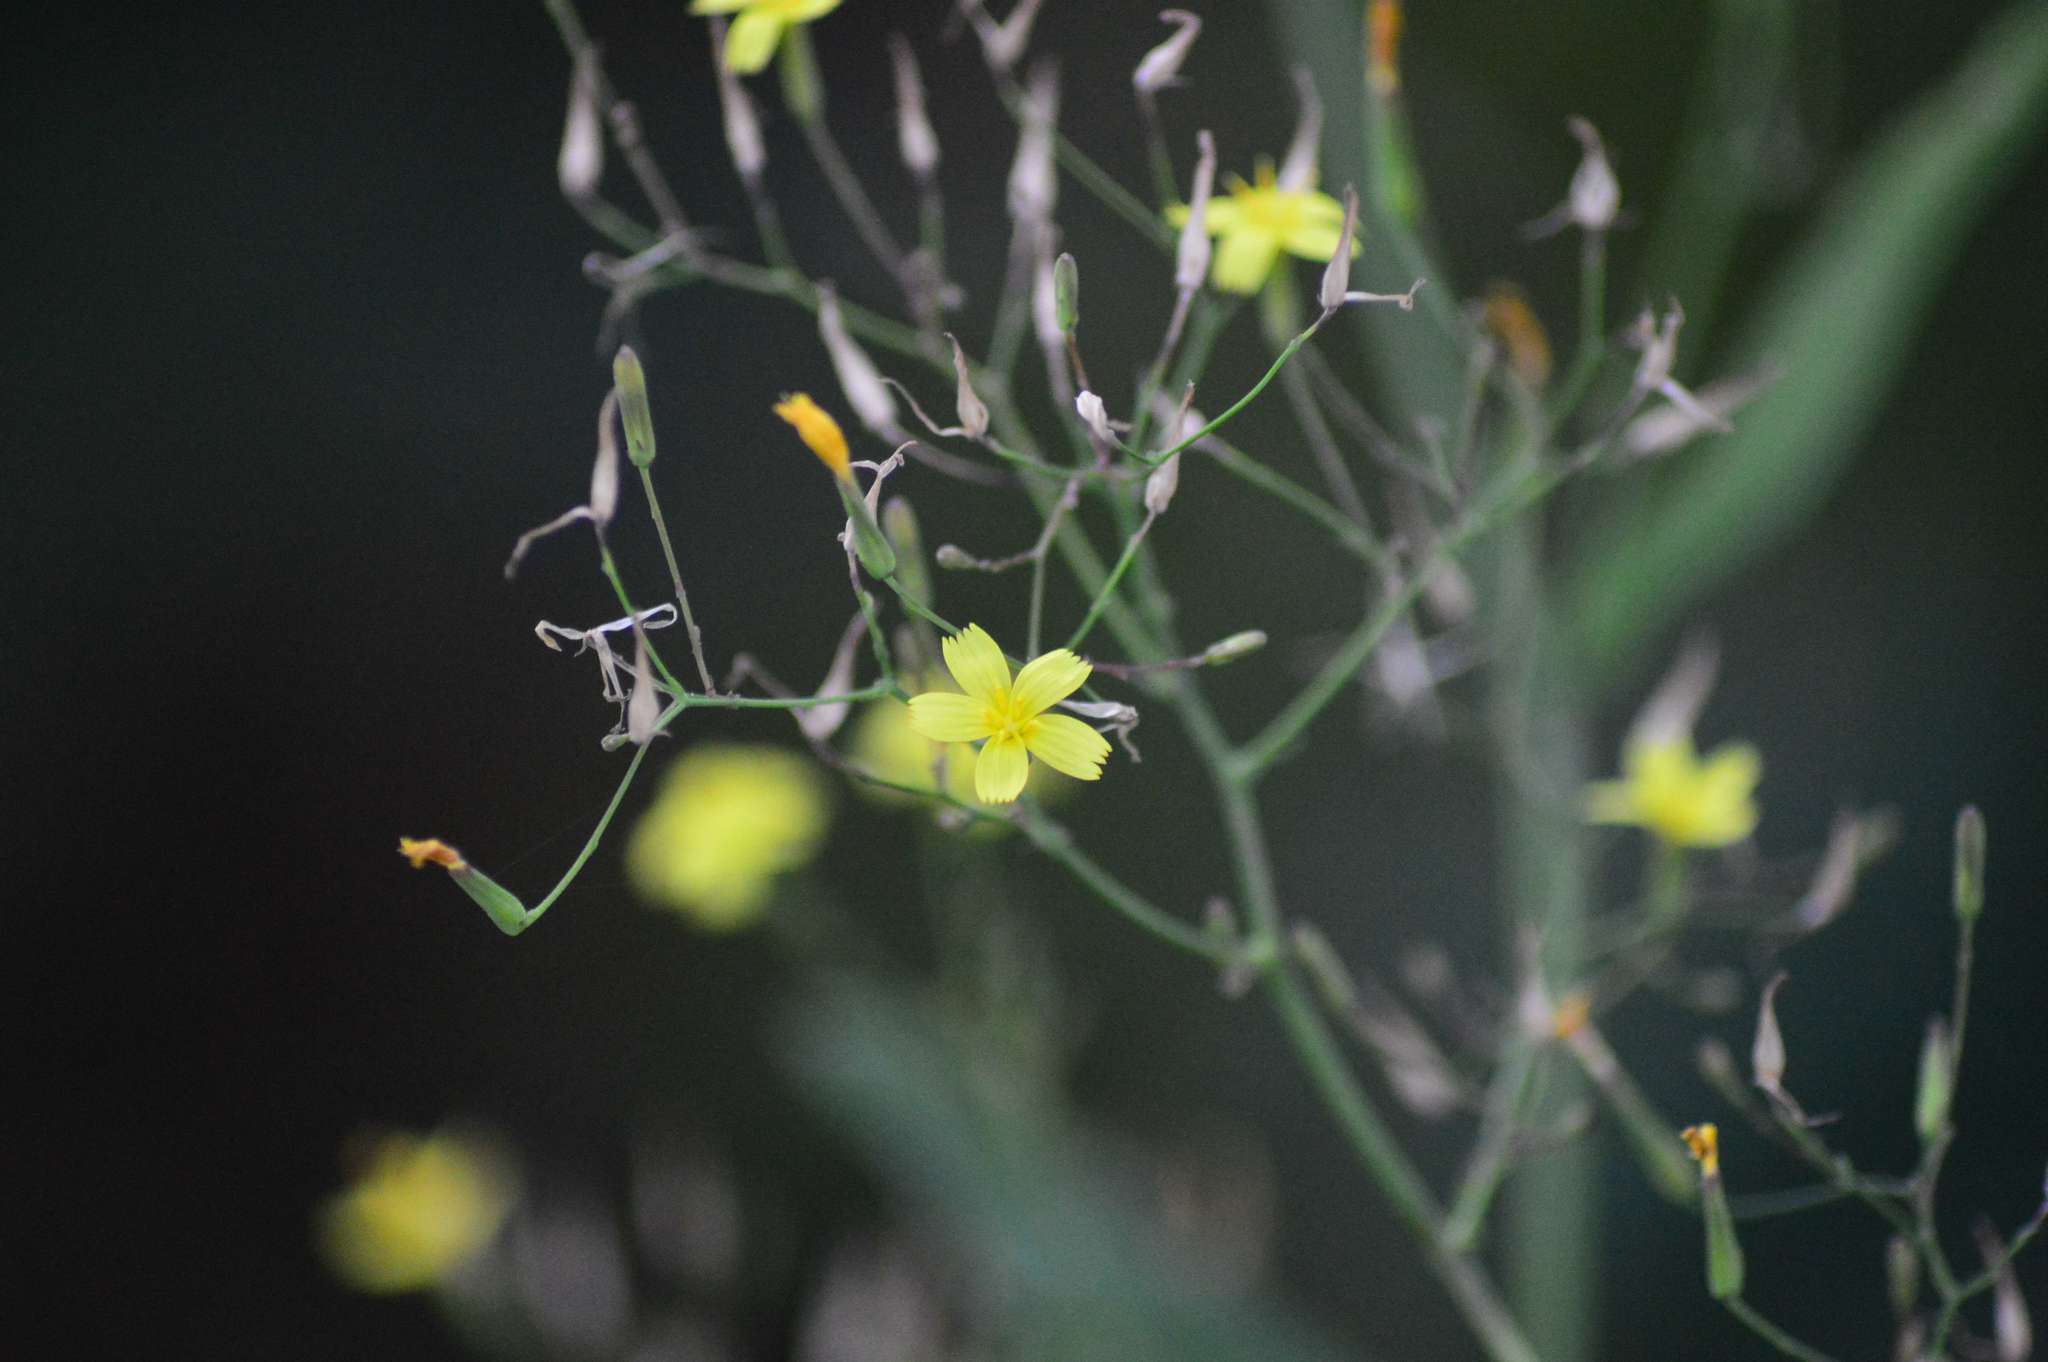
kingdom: Plantae
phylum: Tracheophyta
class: Magnoliopsida
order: Asterales
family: Asteraceae
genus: Mycelis
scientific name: Mycelis muralis
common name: Wall lettuce
